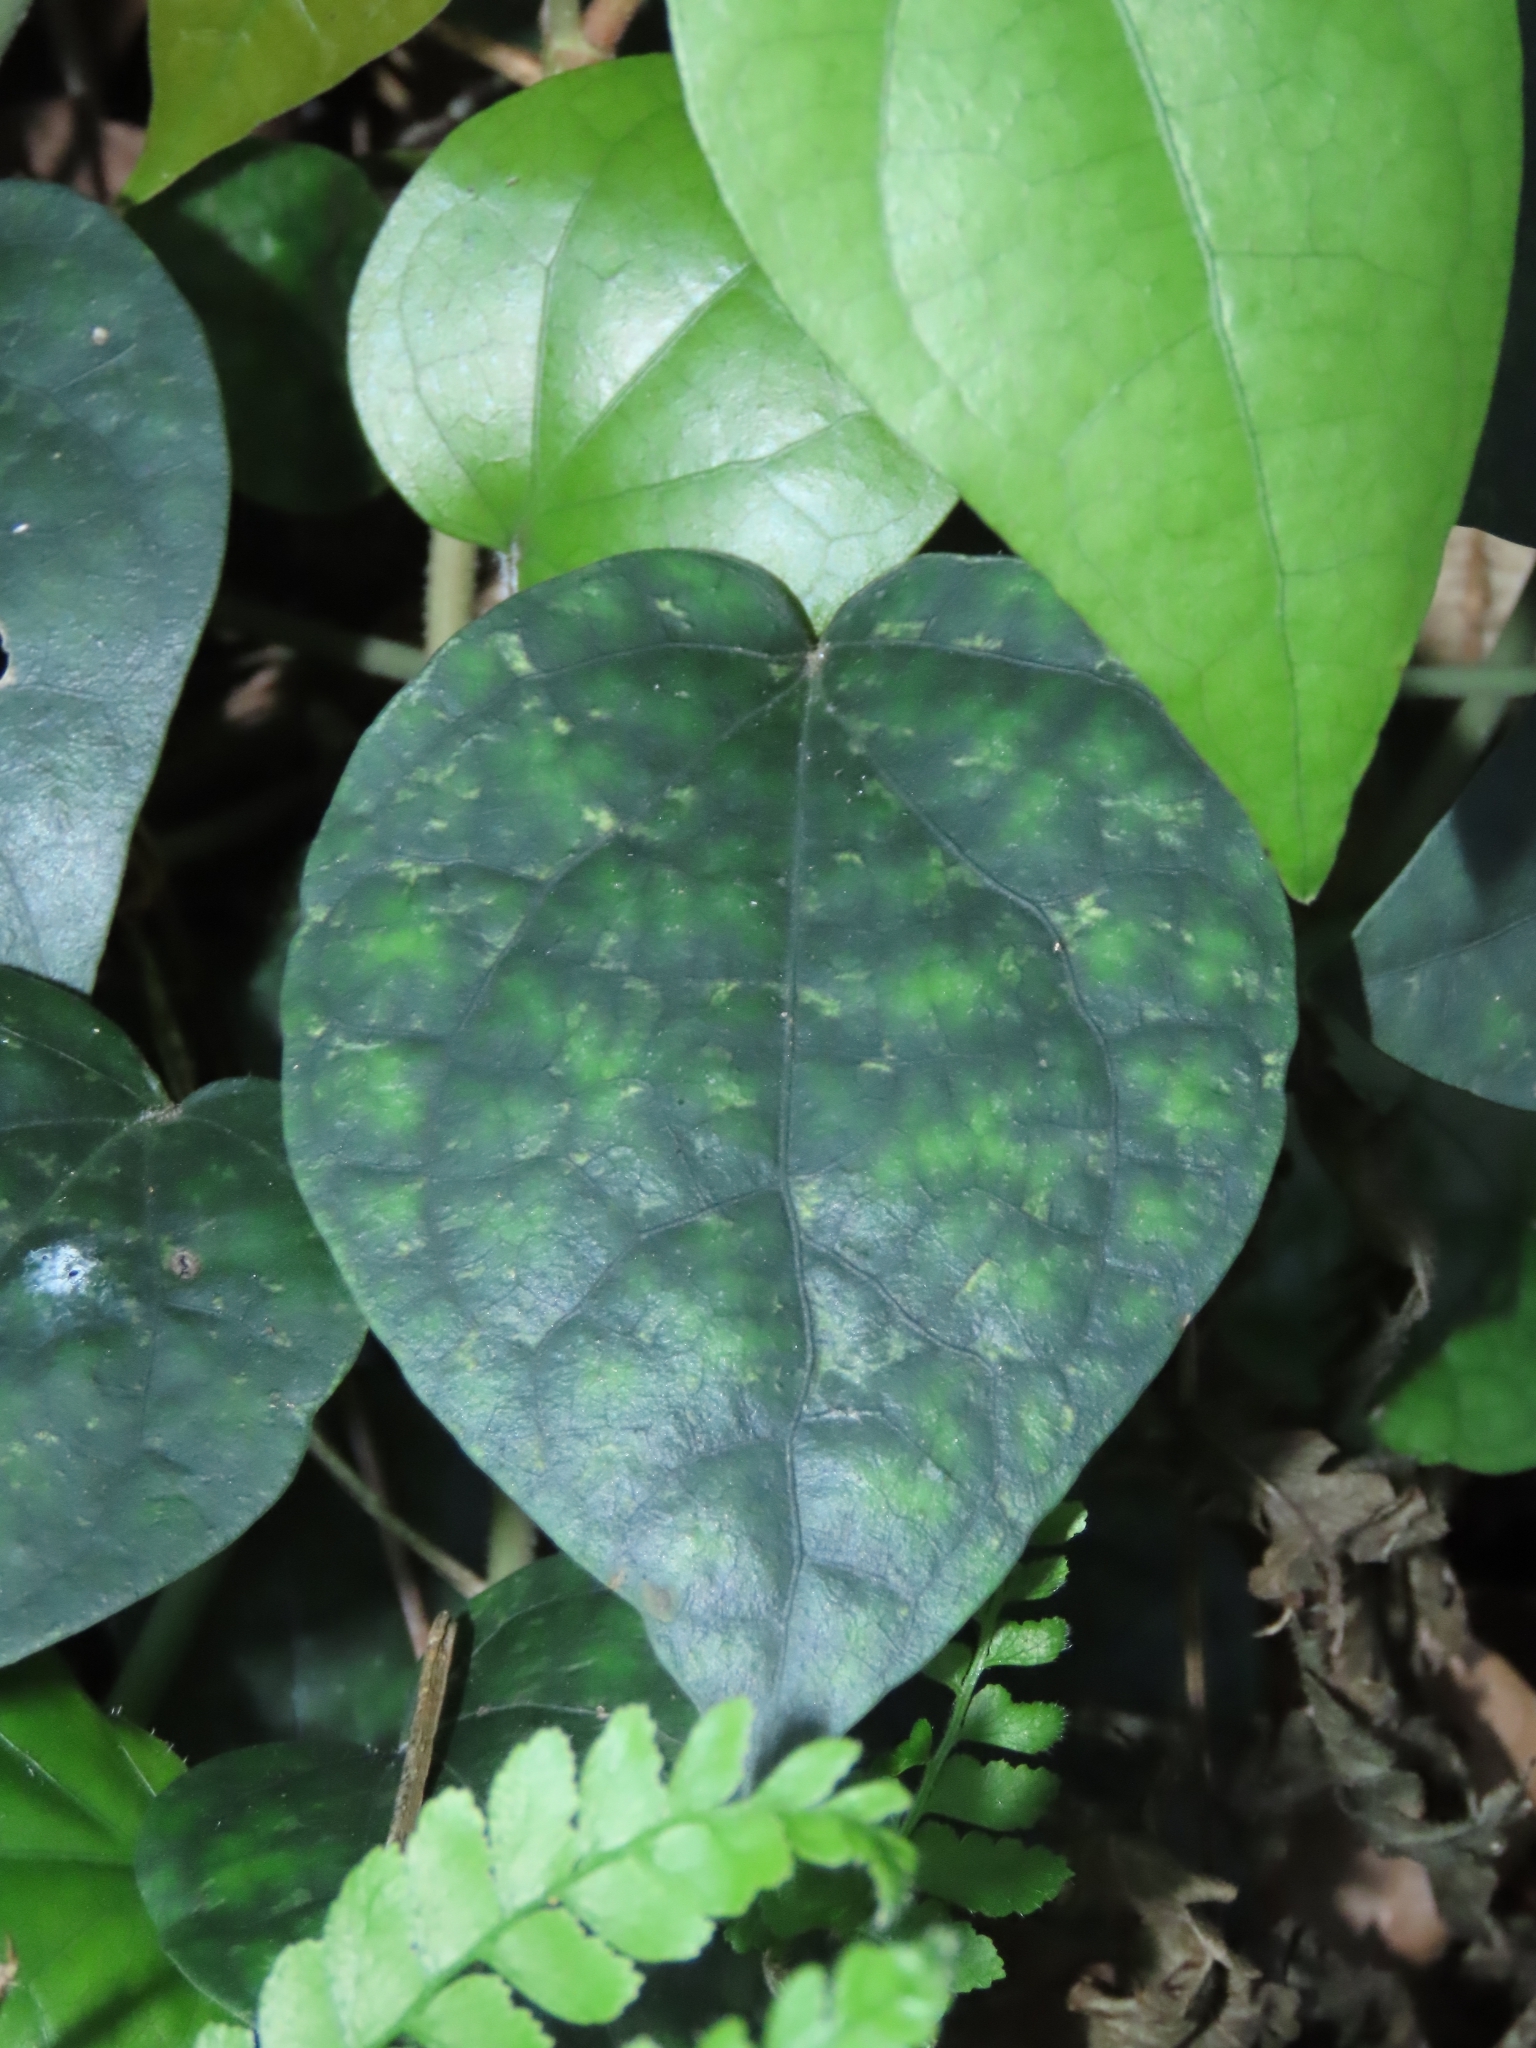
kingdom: Plantae
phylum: Tracheophyta
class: Magnoliopsida
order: Piperales
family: Piperaceae
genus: Piper
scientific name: Piper kadsura
